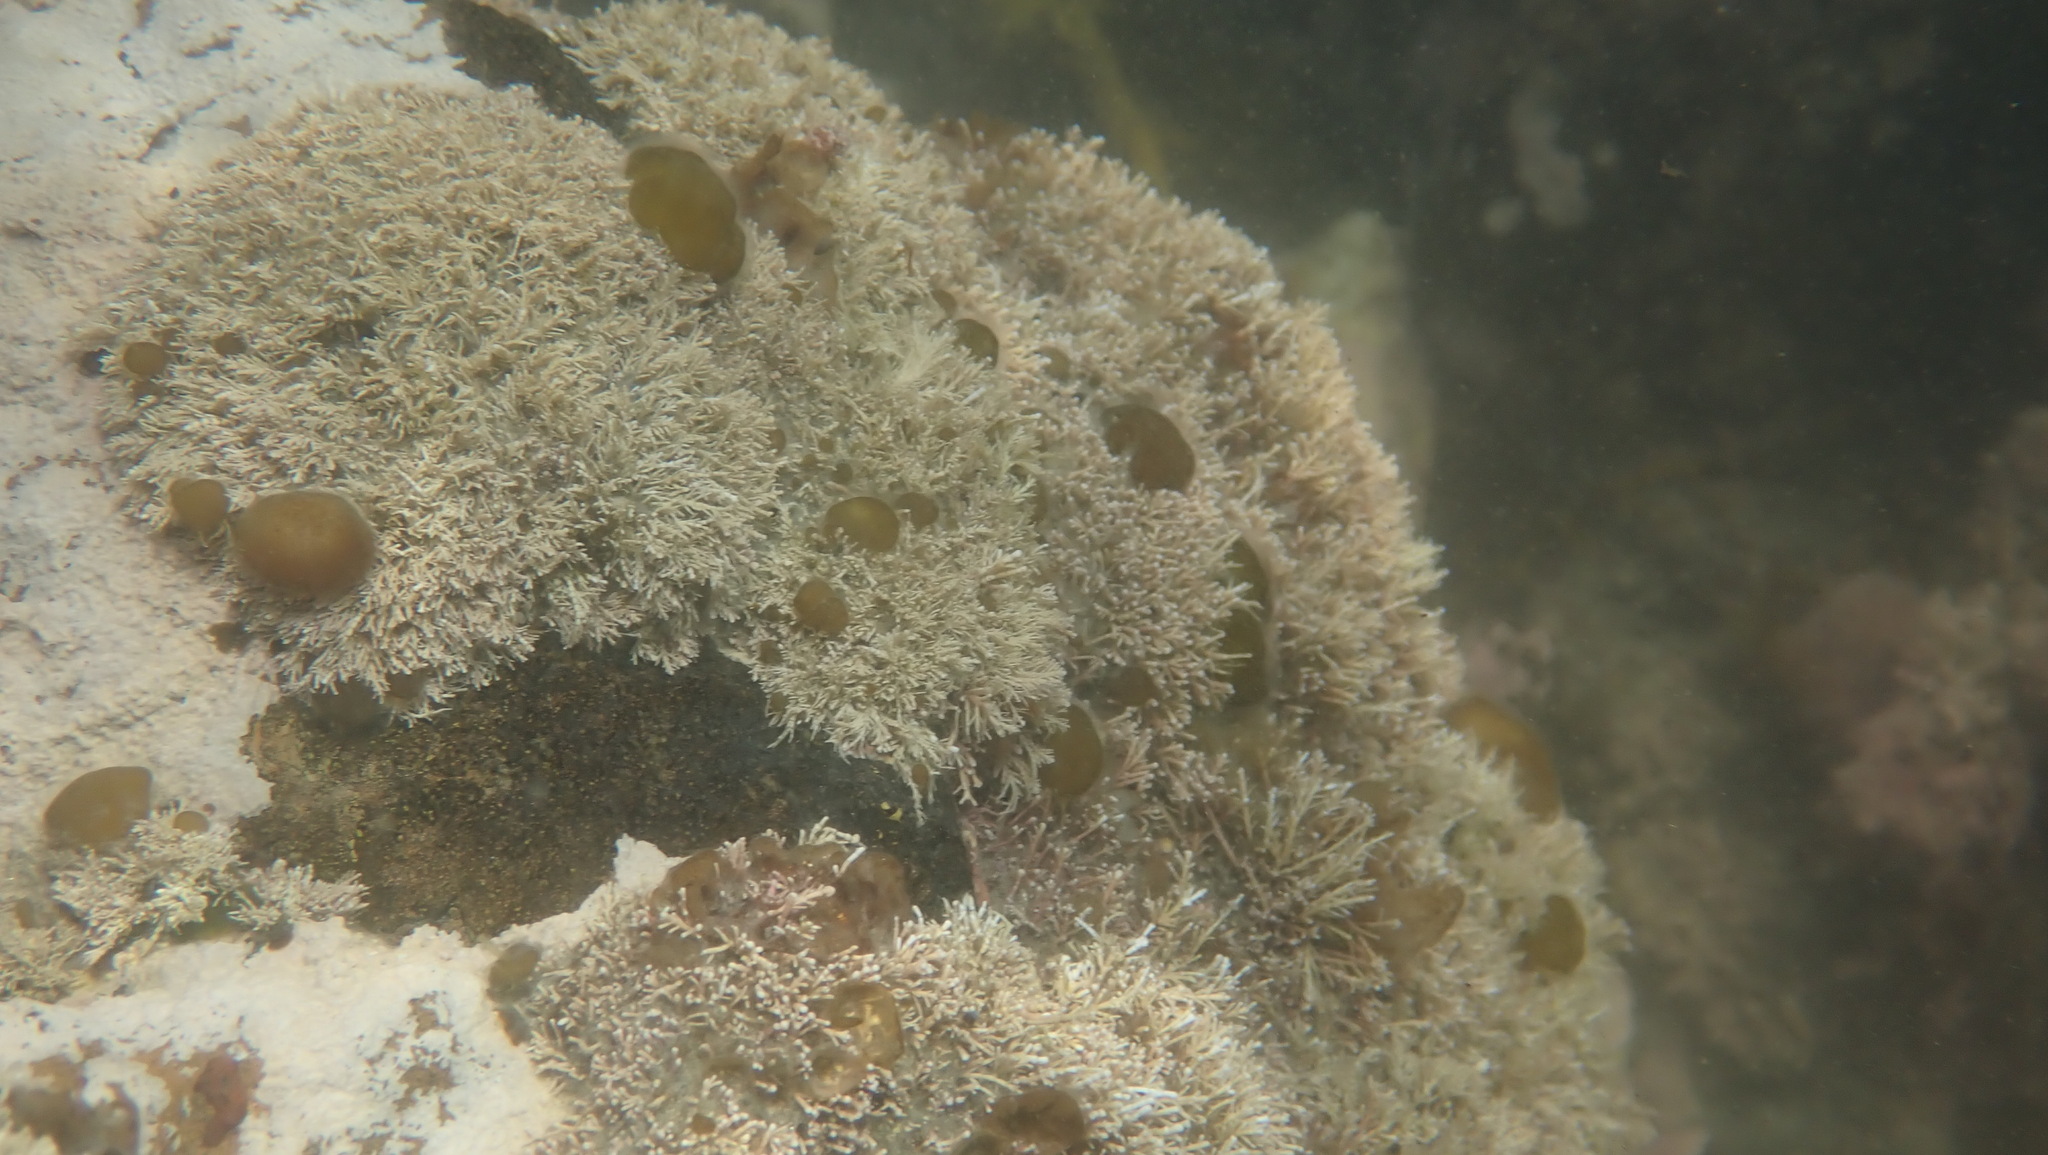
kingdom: Plantae
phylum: Rhodophyta
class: Florideophyceae
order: Corallinales
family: Corallinaceae
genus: Corallina
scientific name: Corallina officinalis
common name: Coral weed
